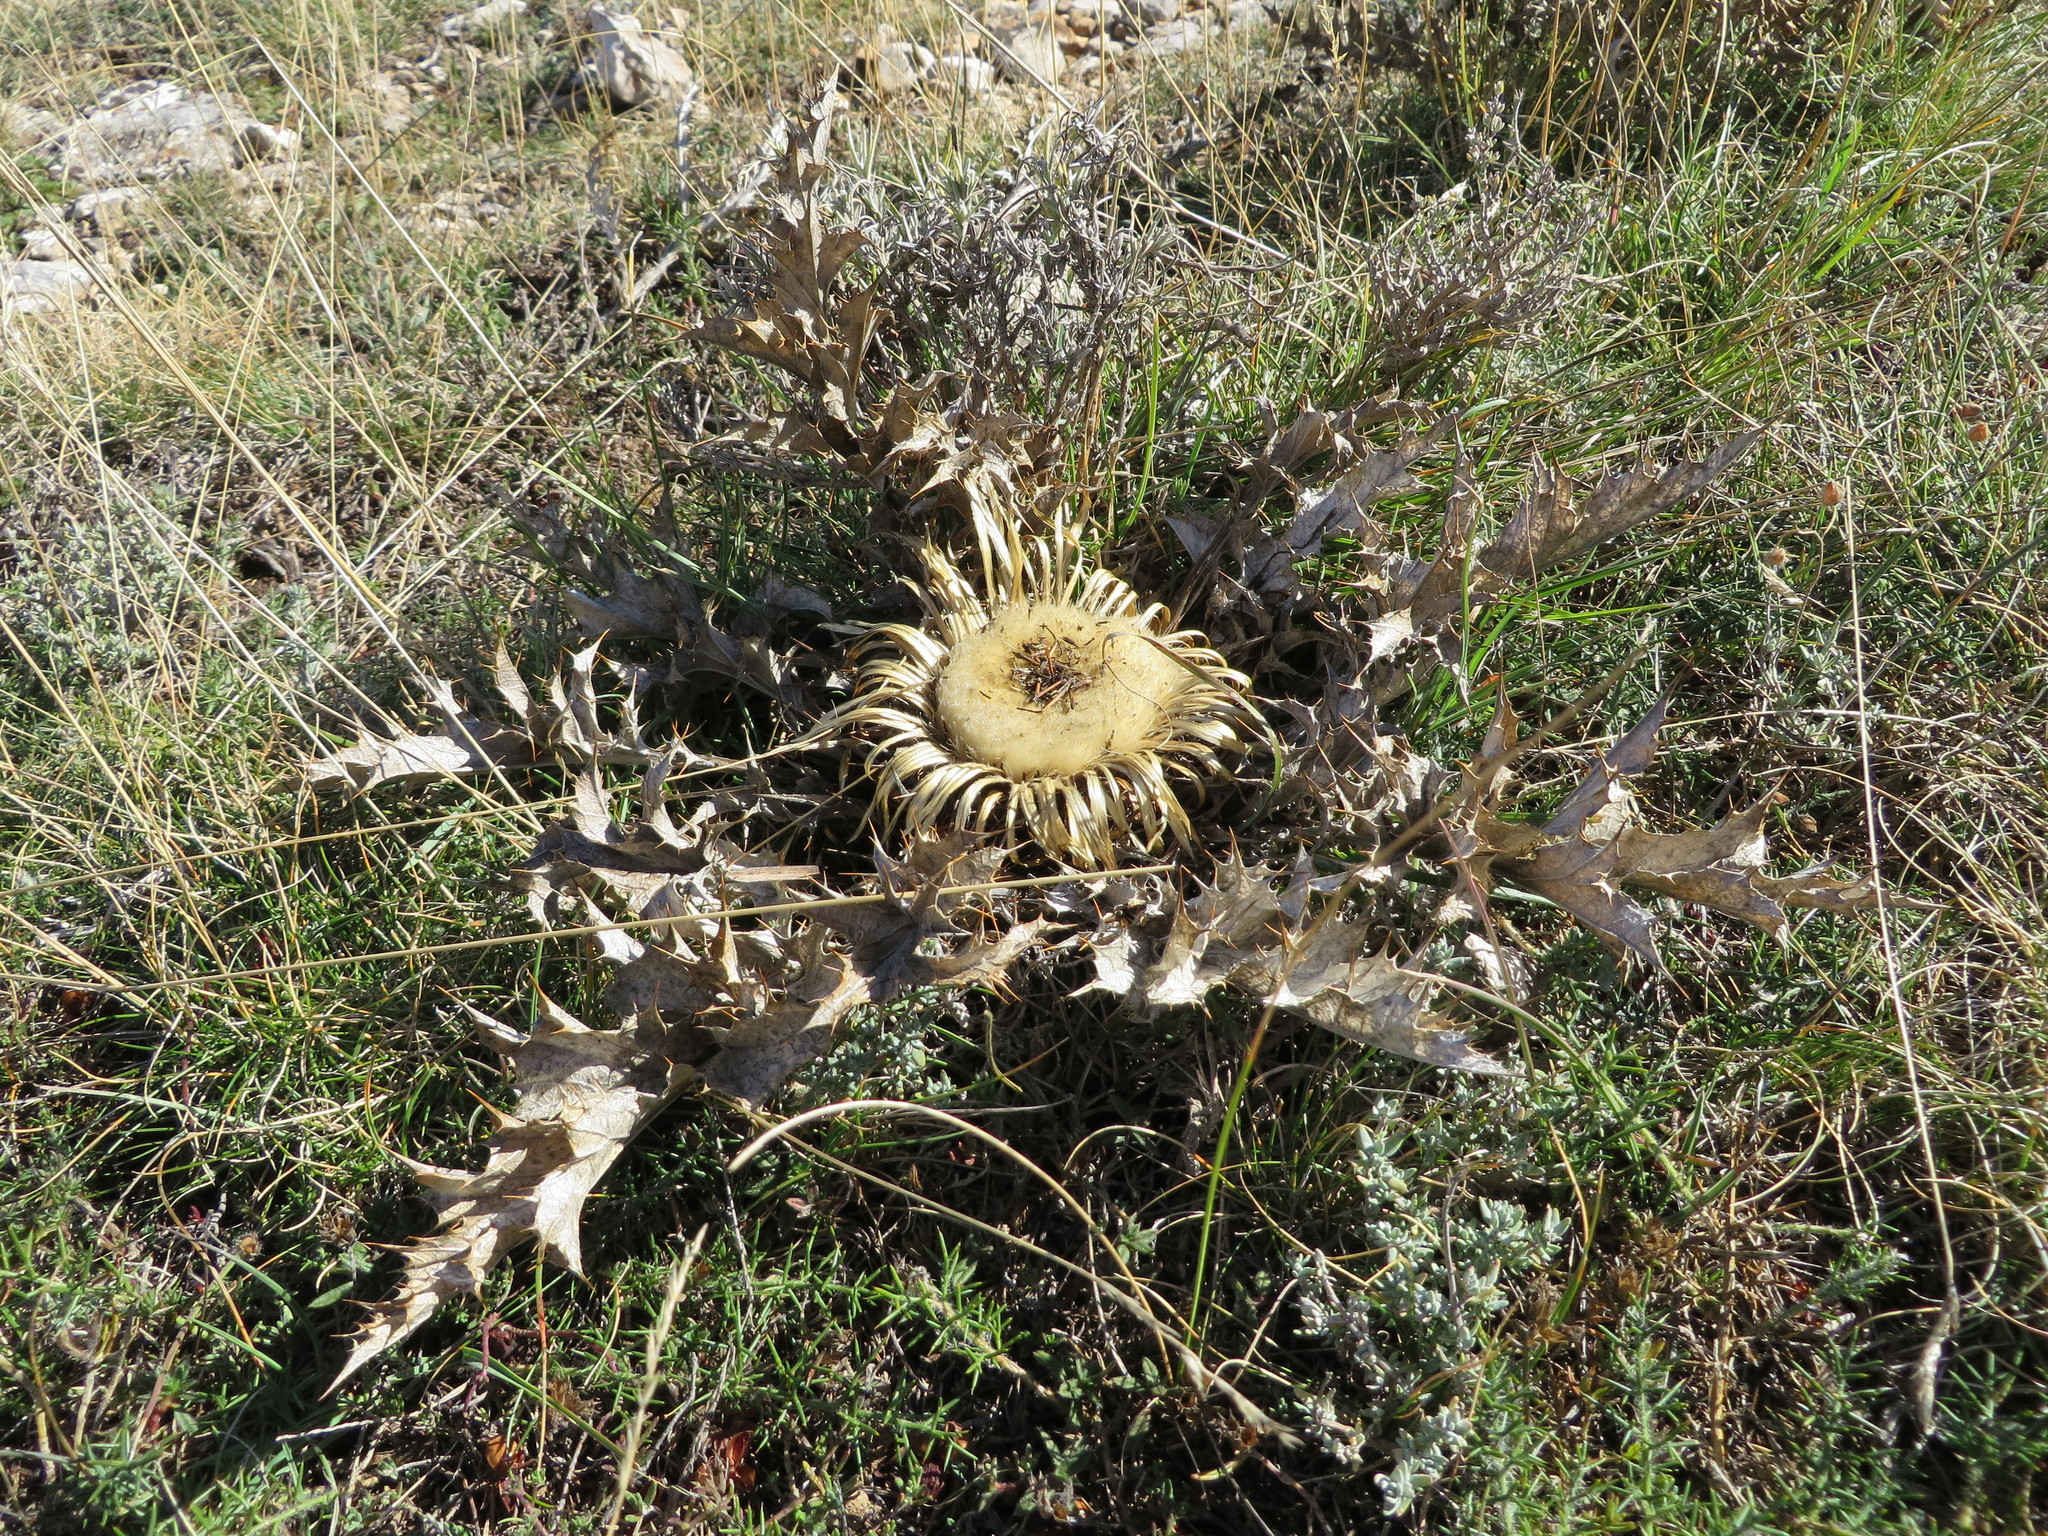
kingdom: Plantae
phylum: Tracheophyta
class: Magnoliopsida
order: Asterales
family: Asteraceae
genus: Carlina
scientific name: Carlina acanthifolia
